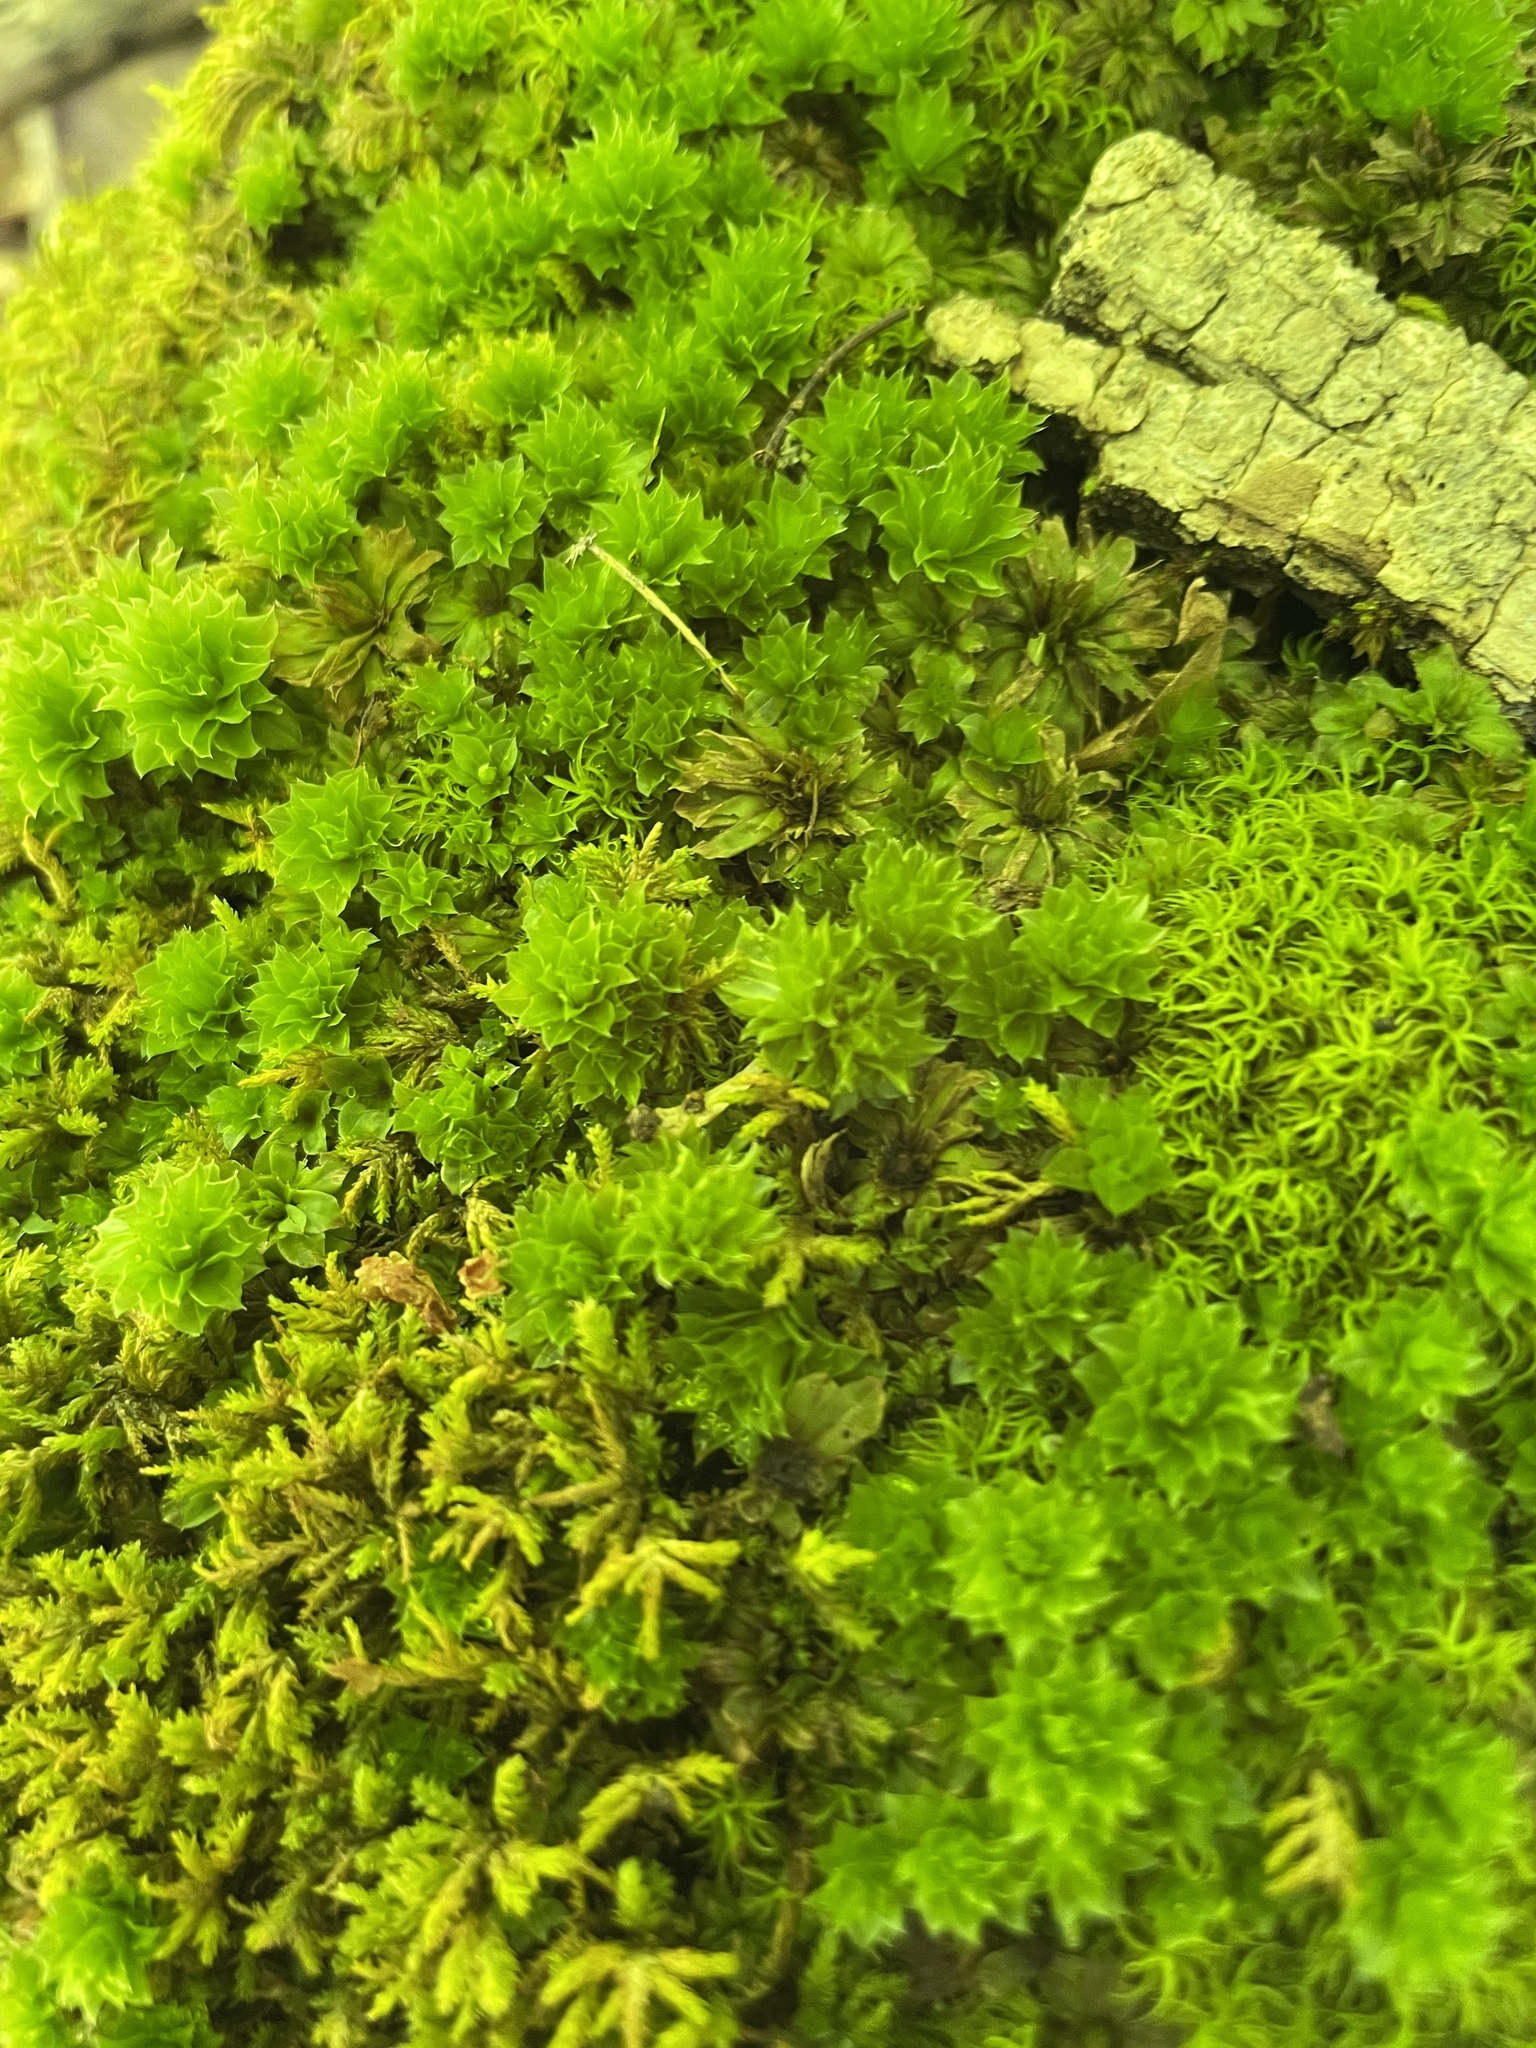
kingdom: Plantae
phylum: Bryophyta
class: Bryopsida
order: Bryales
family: Bryaceae
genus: Rhodobryum
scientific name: Rhodobryum ontariense
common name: Ontario rhodobryum moss
